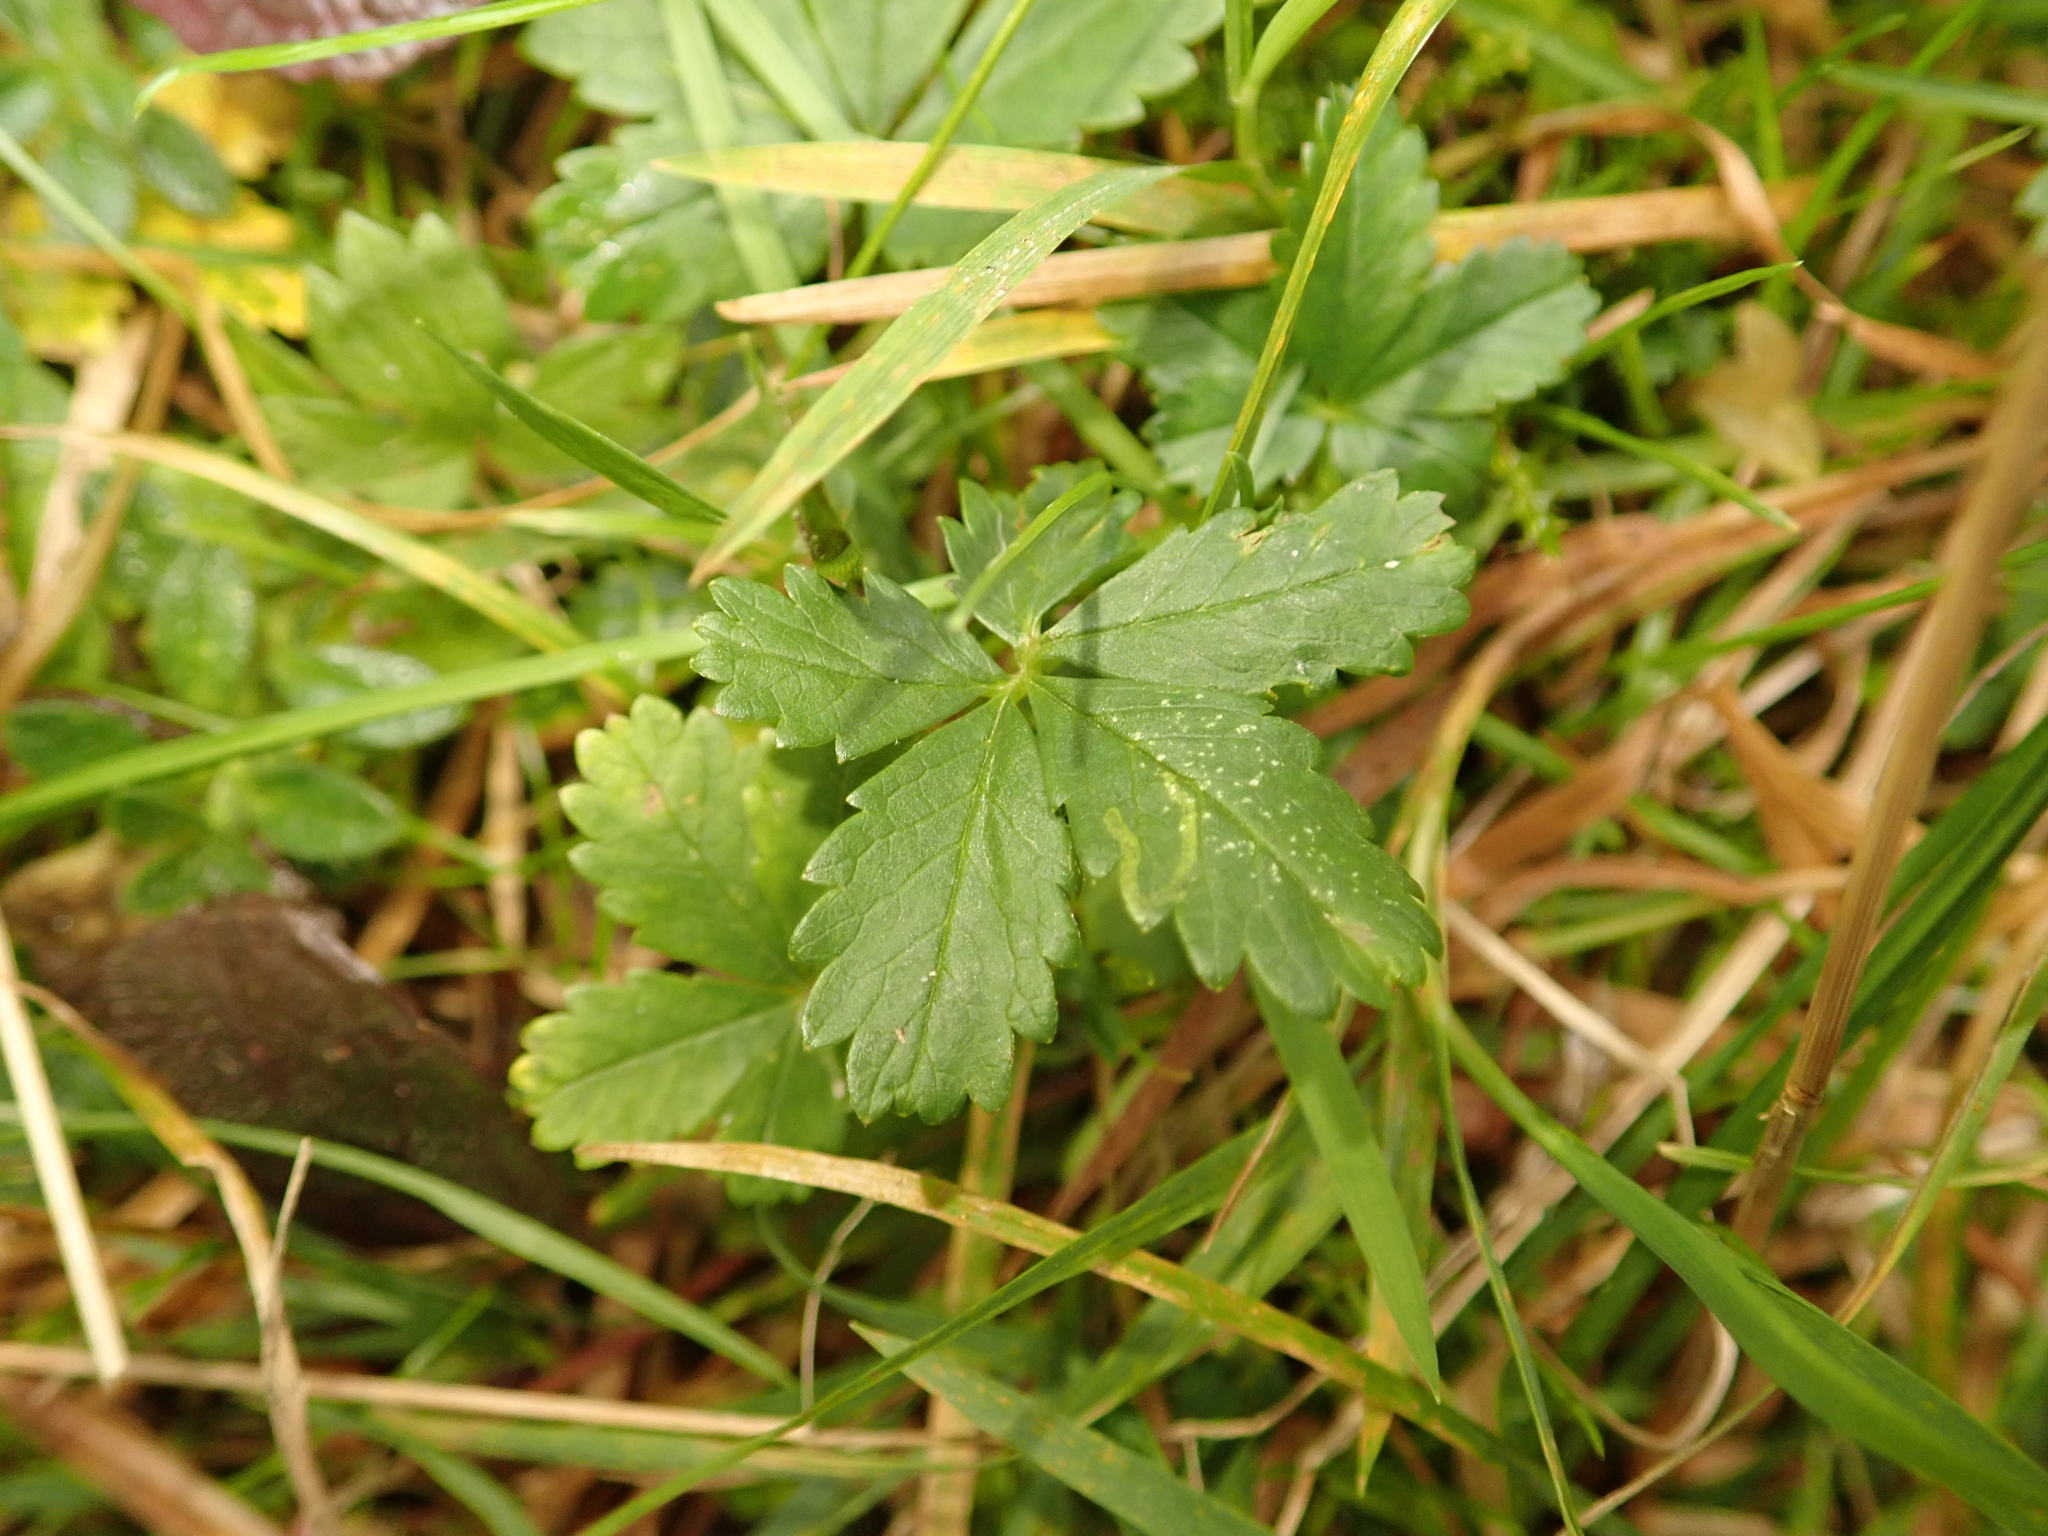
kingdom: Plantae
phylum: Tracheophyta
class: Magnoliopsida
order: Rosales
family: Rosaceae
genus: Potentilla
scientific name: Potentilla reptans
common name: Creeping cinquefoil
